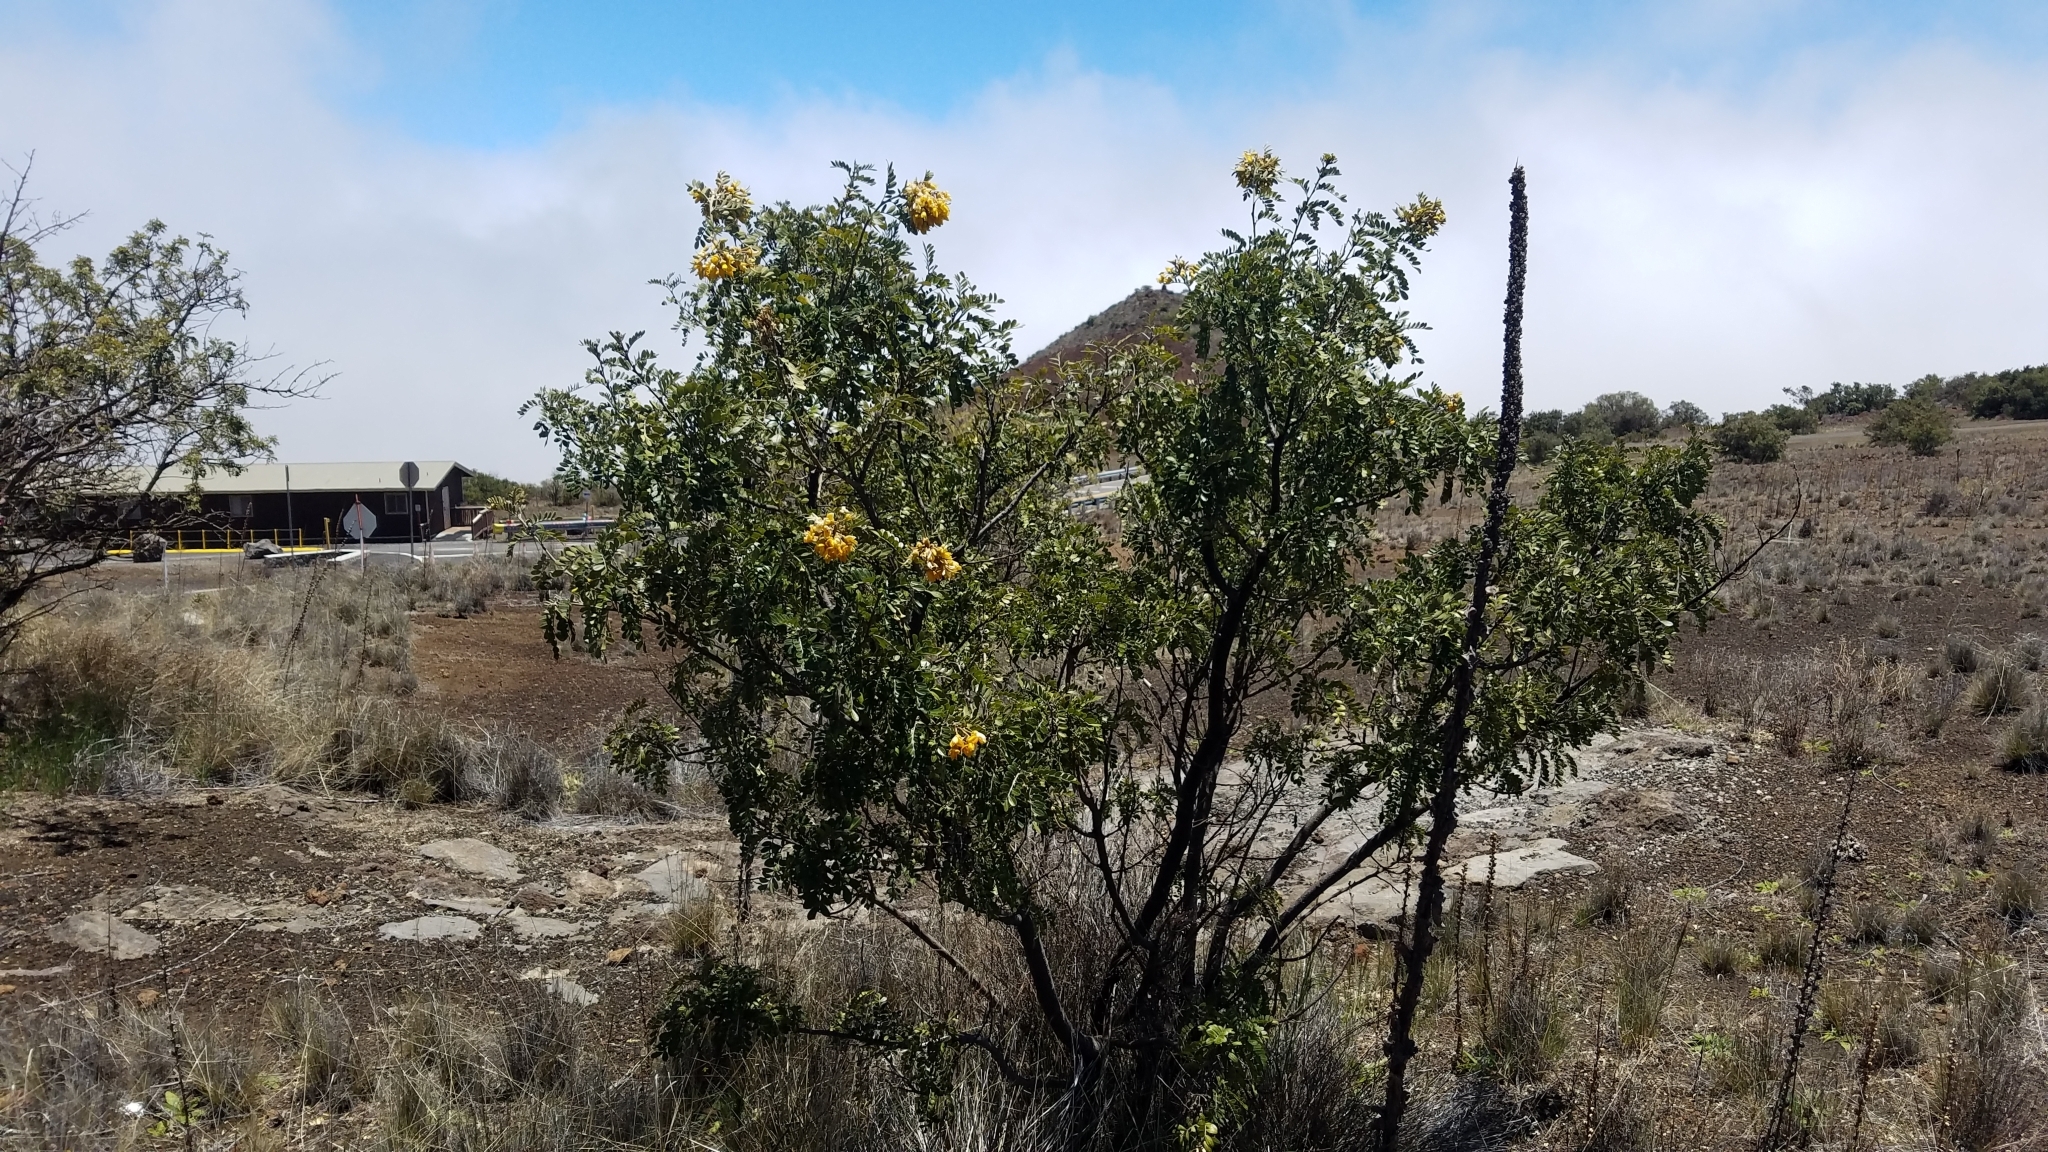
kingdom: Plantae
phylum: Tracheophyta
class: Magnoliopsida
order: Fabales
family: Fabaceae
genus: Sophora
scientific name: Sophora chrysophylla
